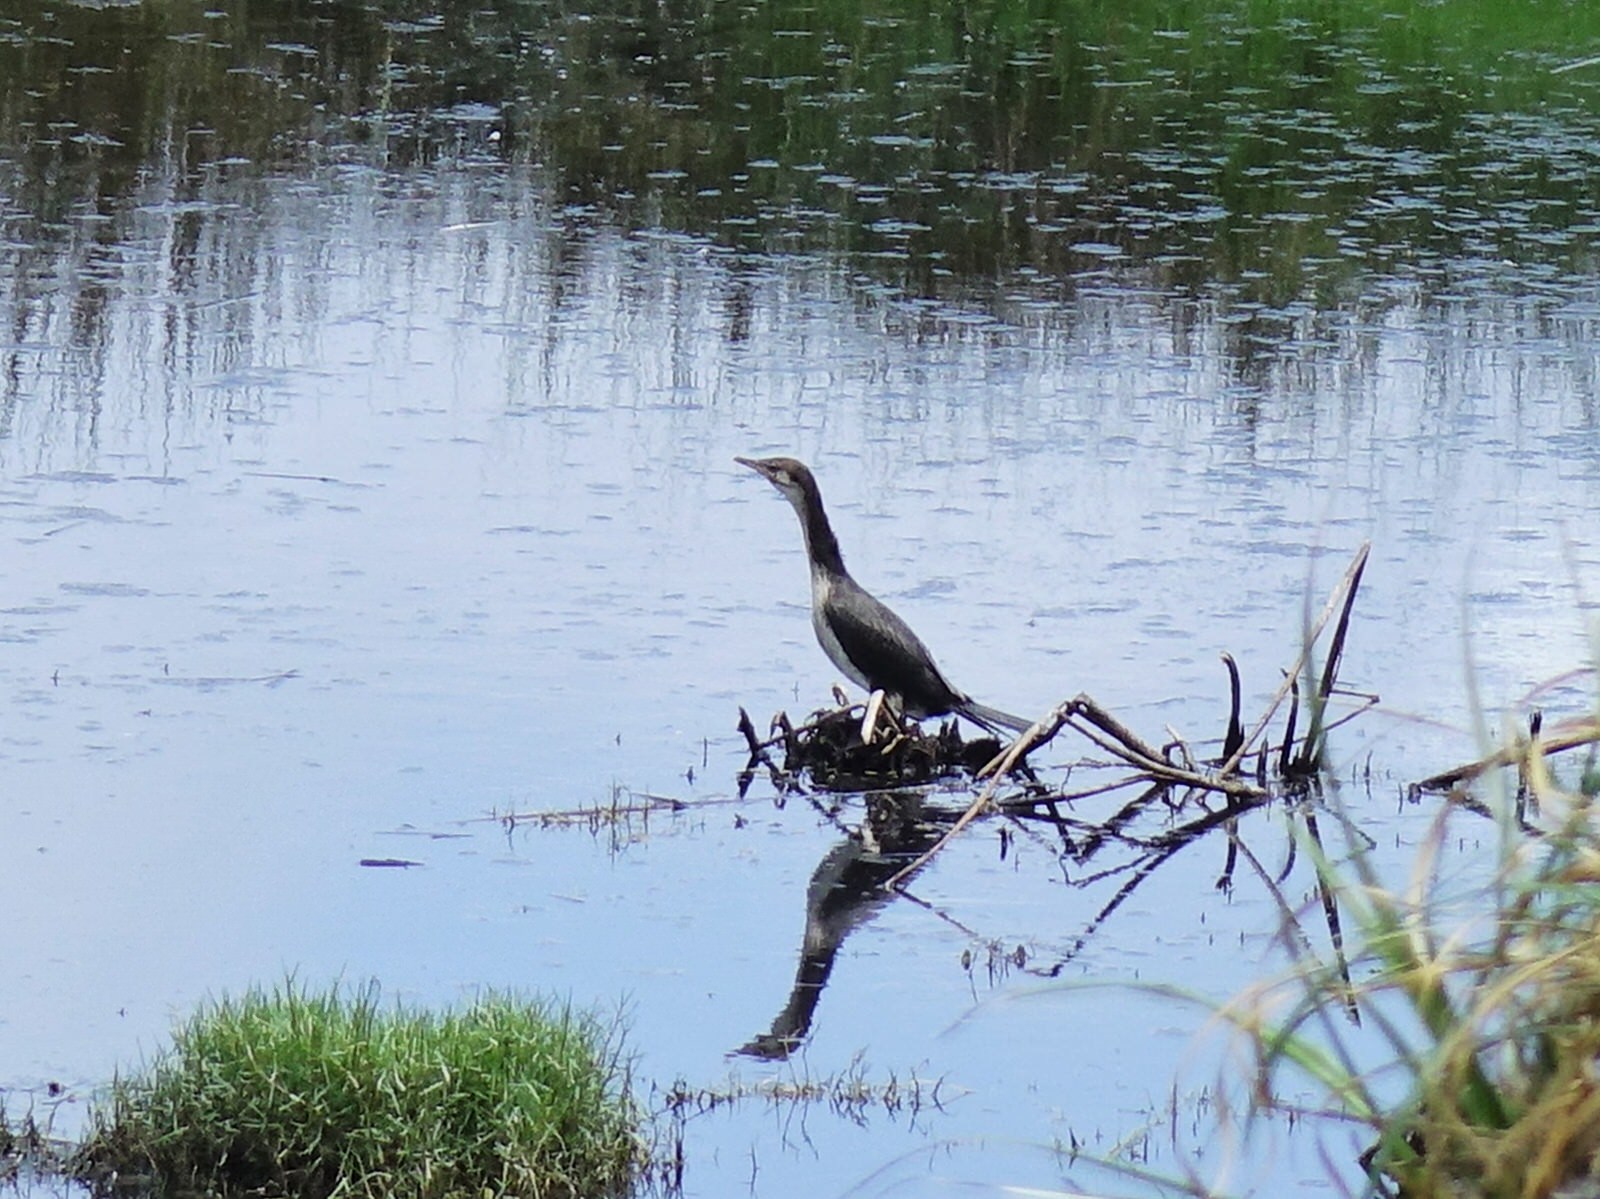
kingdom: Animalia
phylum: Chordata
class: Aves
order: Suliformes
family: Phalacrocoracidae
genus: Microcarbo
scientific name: Microcarbo melanoleucos
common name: Little pied cormorant
